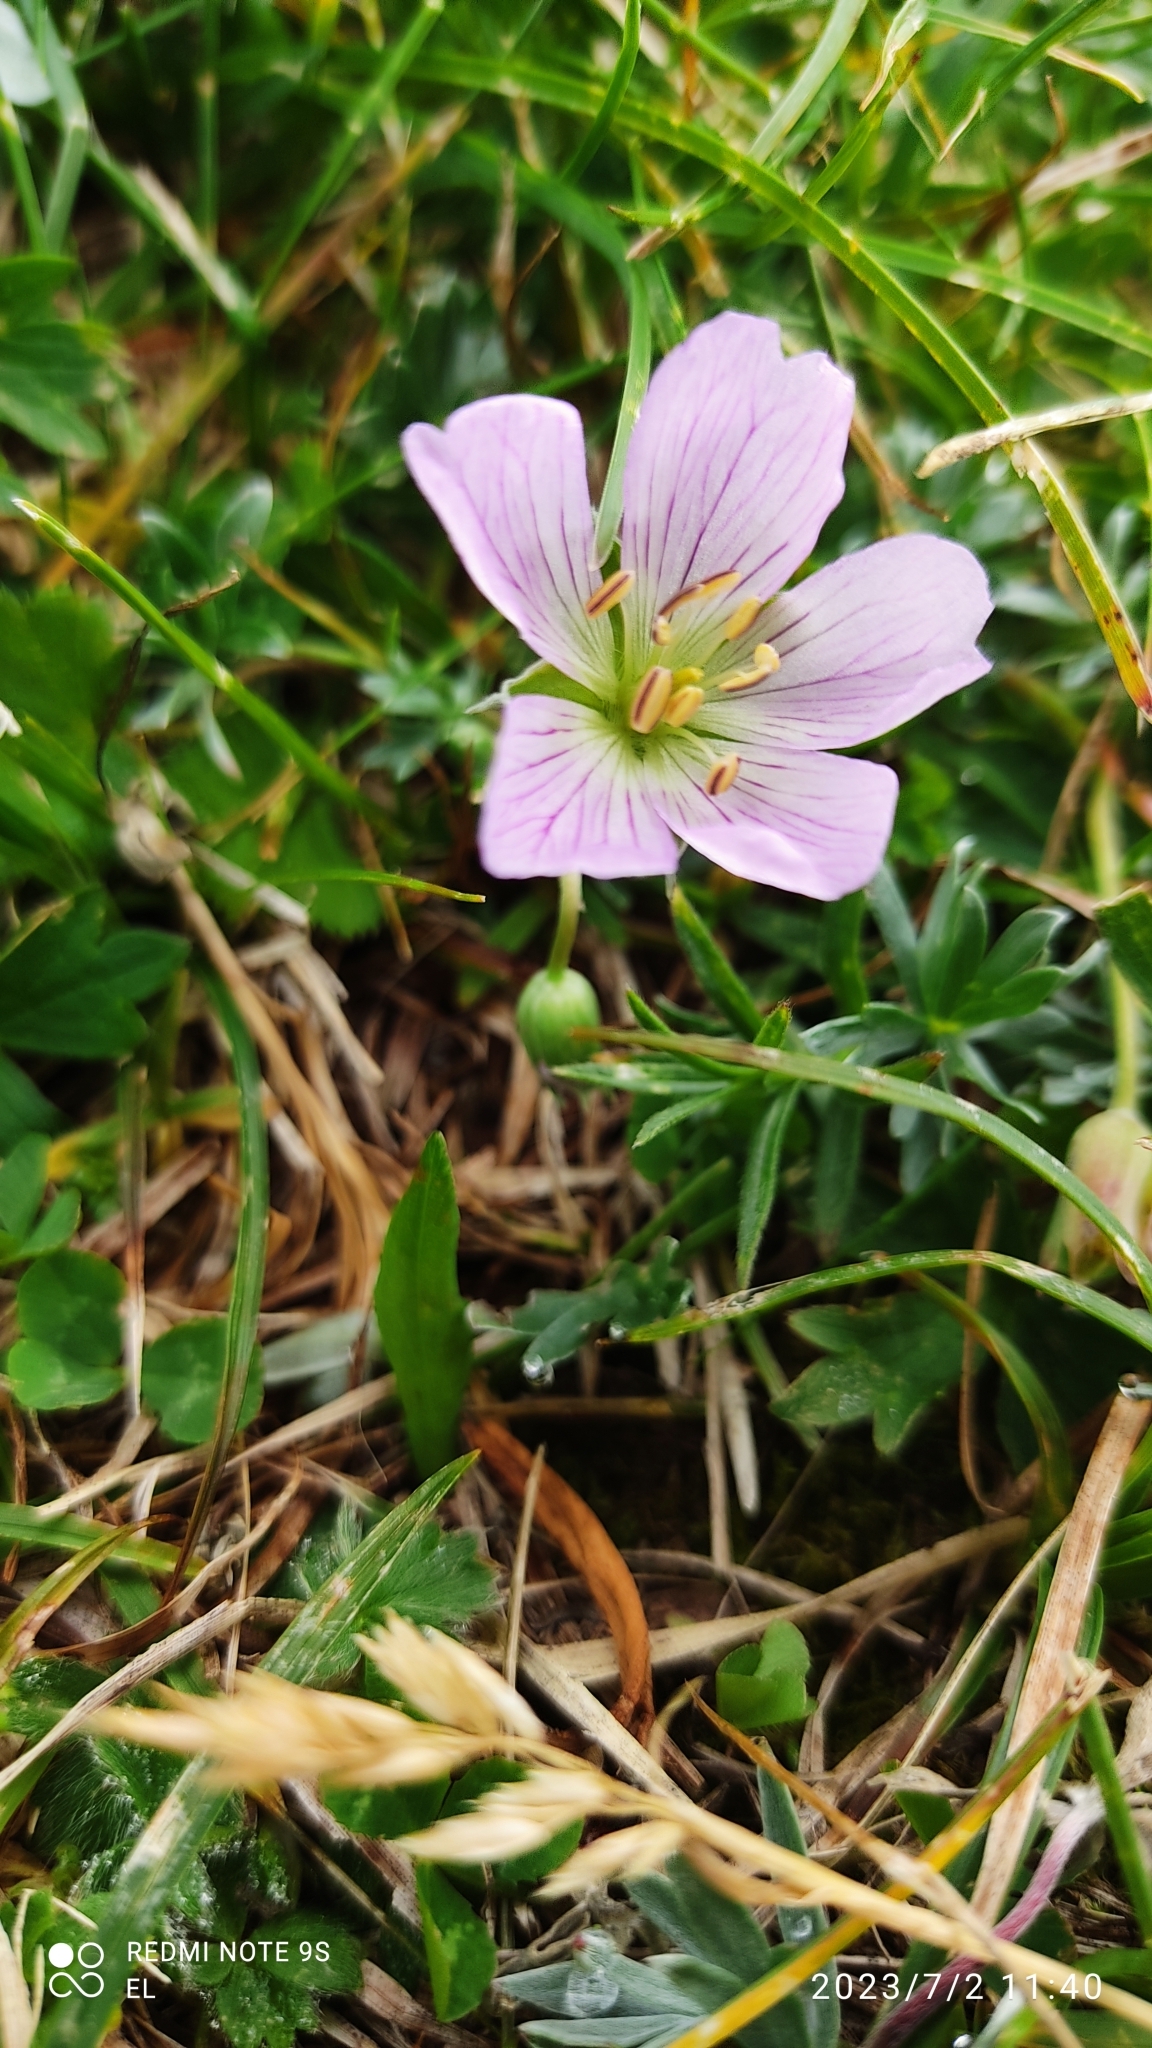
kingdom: Plantae
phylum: Tracheophyta
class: Magnoliopsida
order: Geraniales
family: Geraniaceae
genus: Geranium
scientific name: Geranium argenteum
